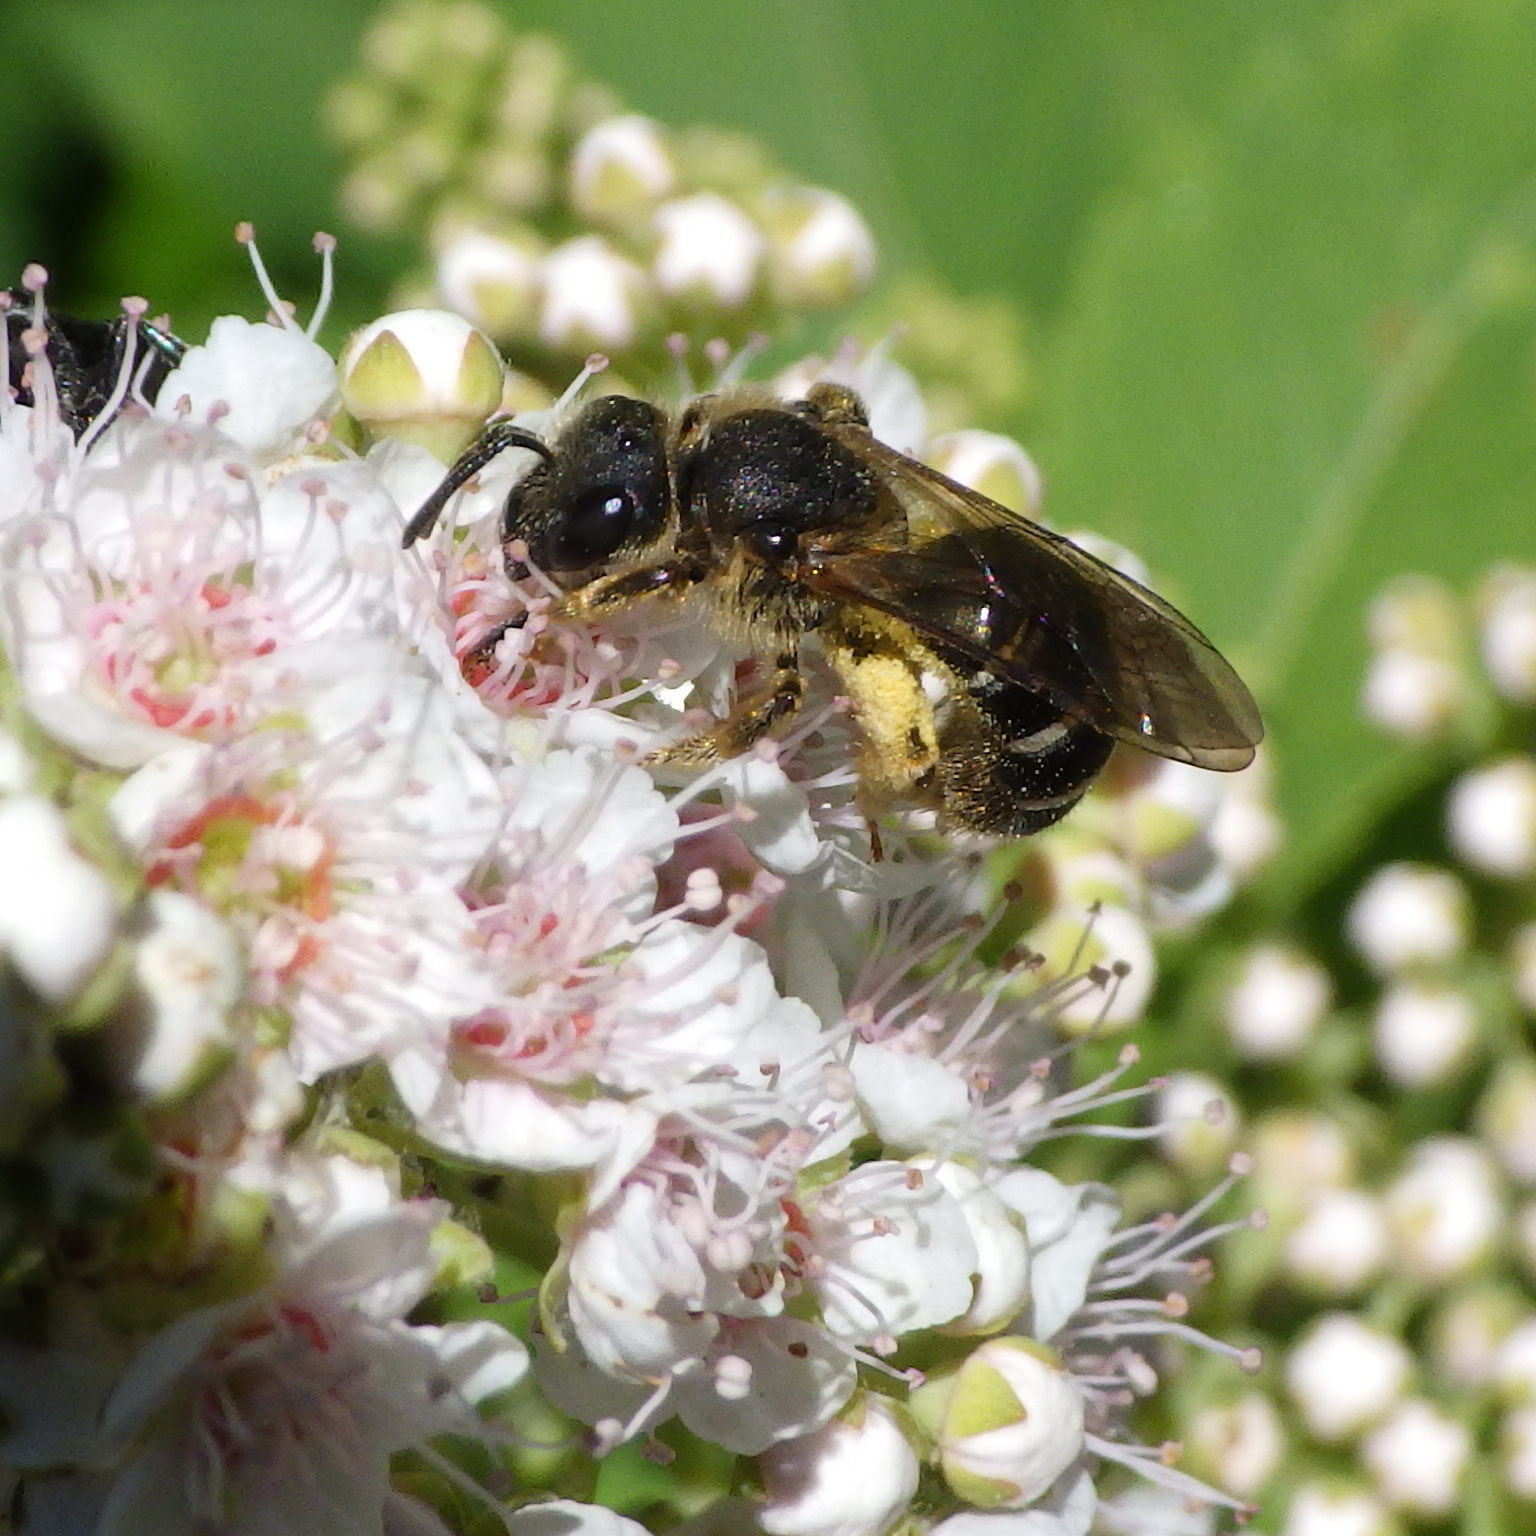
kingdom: Animalia
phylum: Arthropoda
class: Insecta
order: Hymenoptera
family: Halictidae
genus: Halictus
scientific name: Halictus rubicundus
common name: Orange-legged furrow bee
